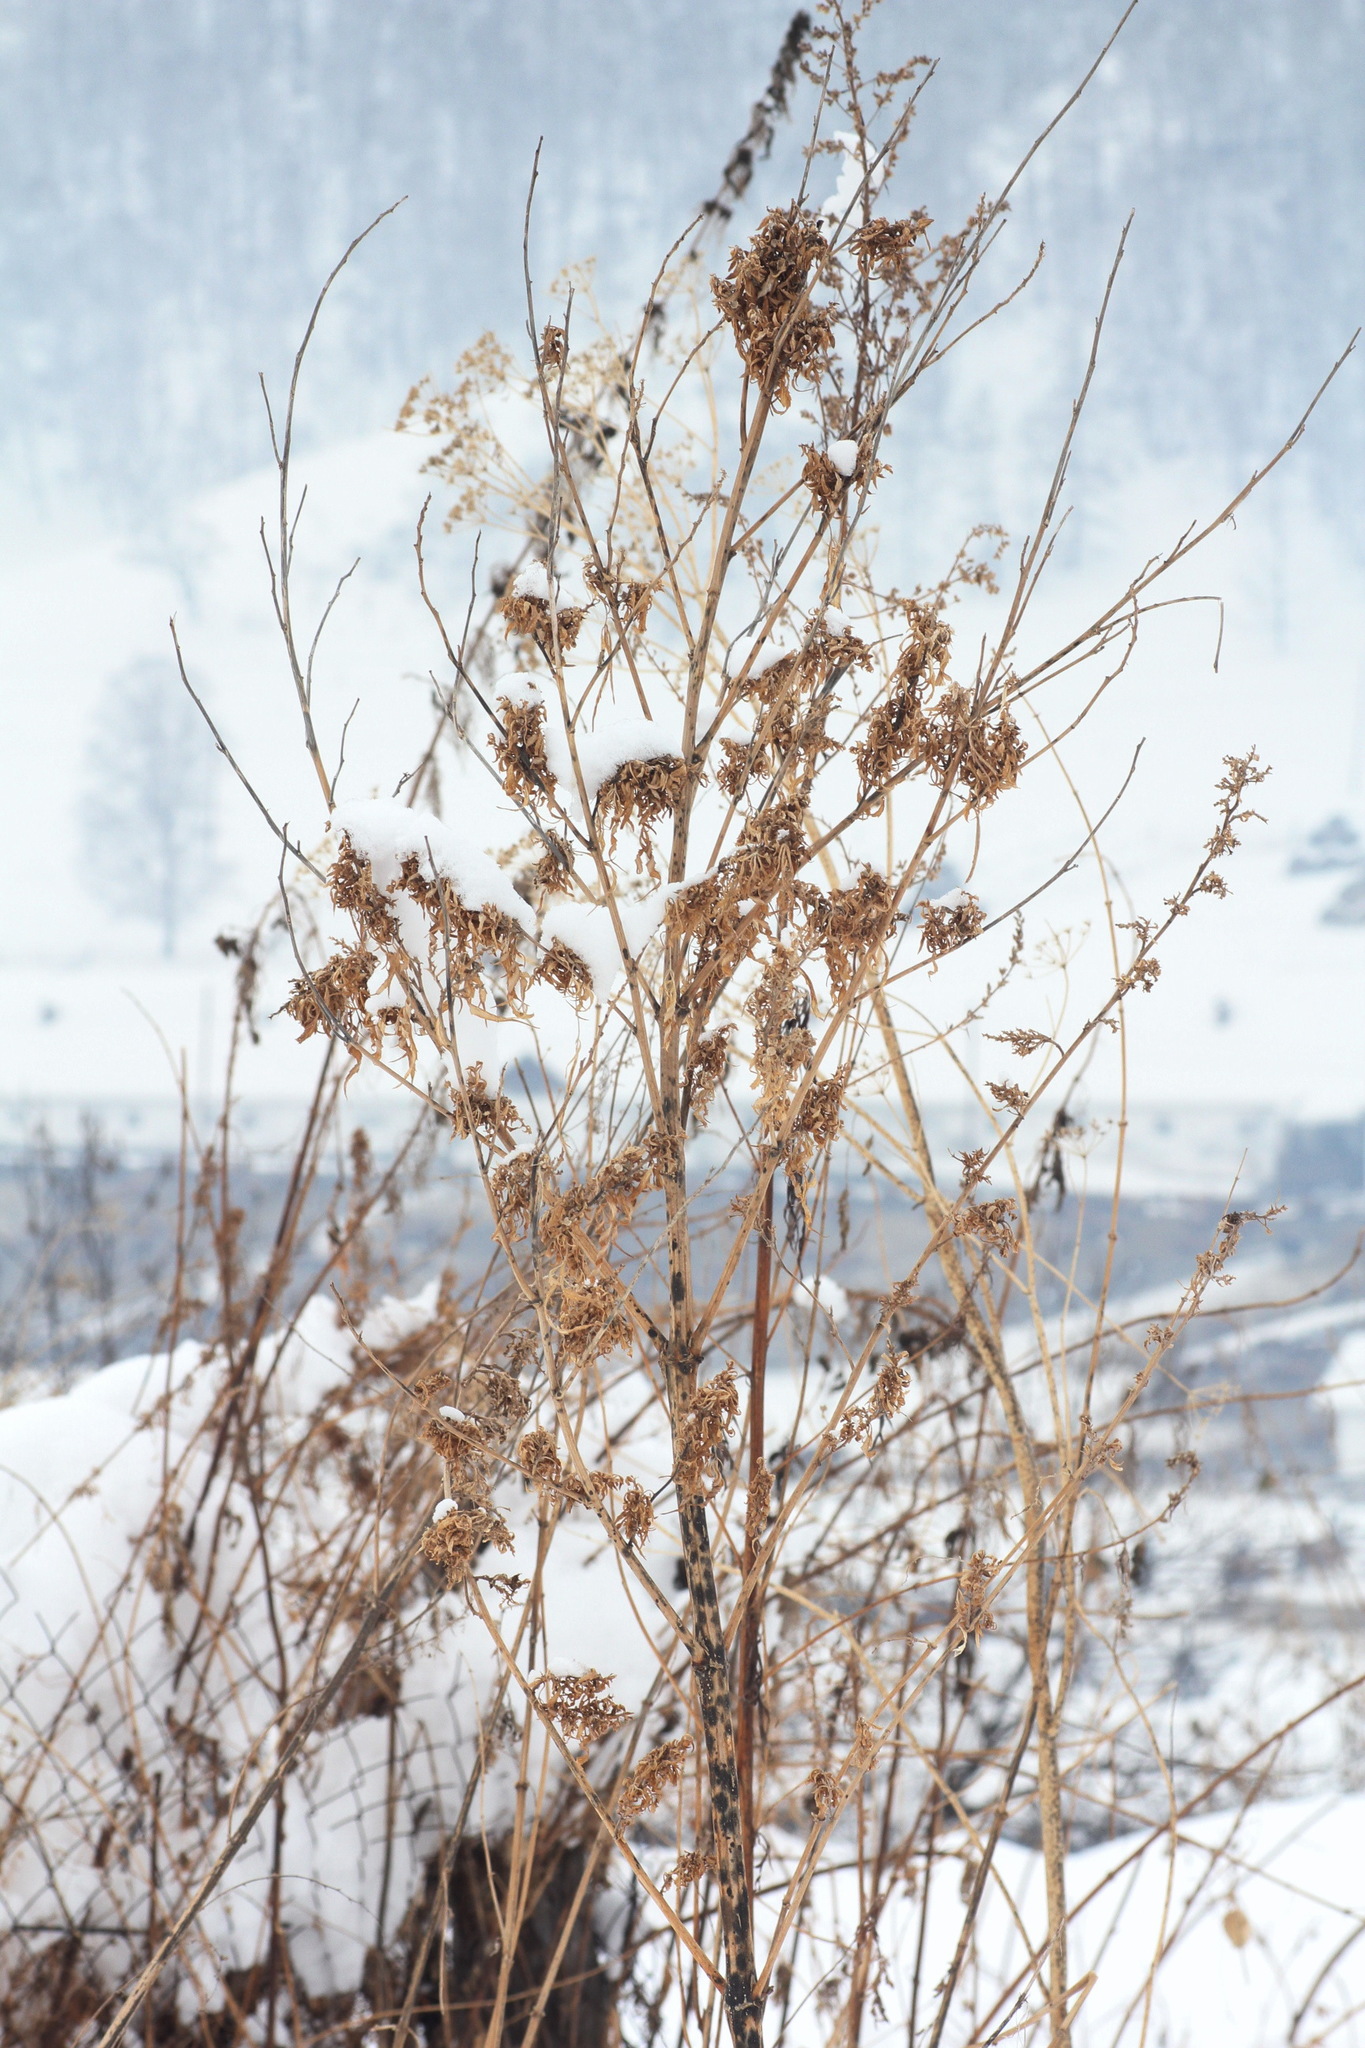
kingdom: Plantae
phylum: Tracheophyta
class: Magnoliopsida
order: Rosales
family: Cannabaceae
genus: Cannabis
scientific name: Cannabis sativa
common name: Hemp
